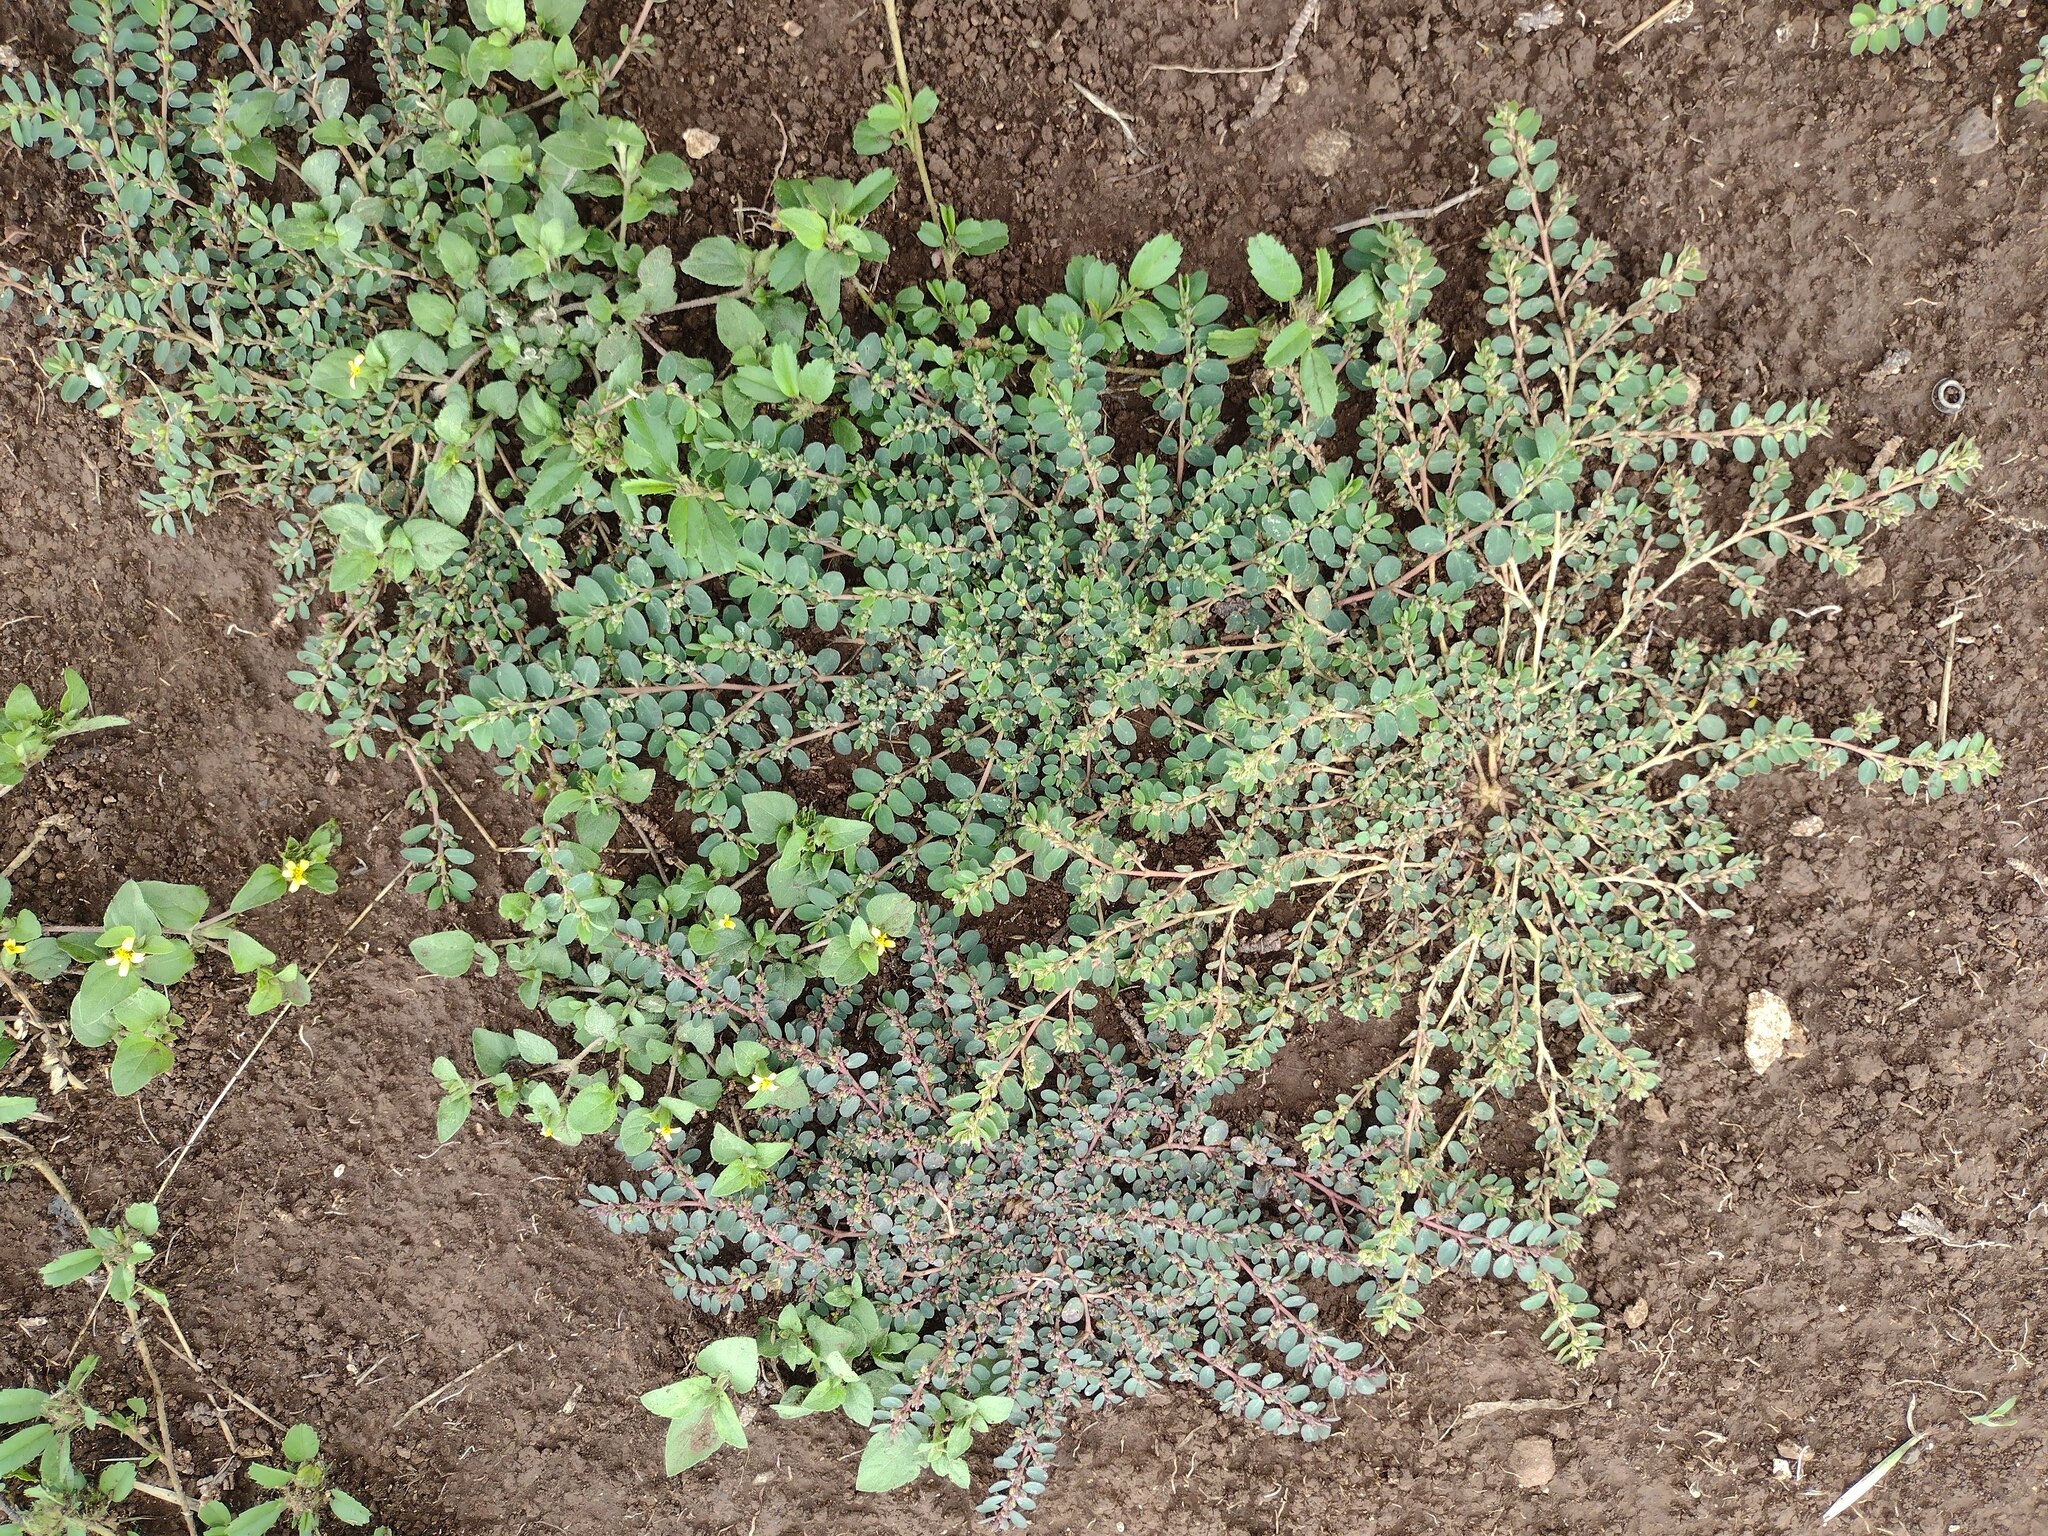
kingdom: Plantae
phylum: Tracheophyta
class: Magnoliopsida
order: Malpighiales
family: Euphorbiaceae
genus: Euphorbia
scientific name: Euphorbia prostrata
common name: Prostrate sandmat
